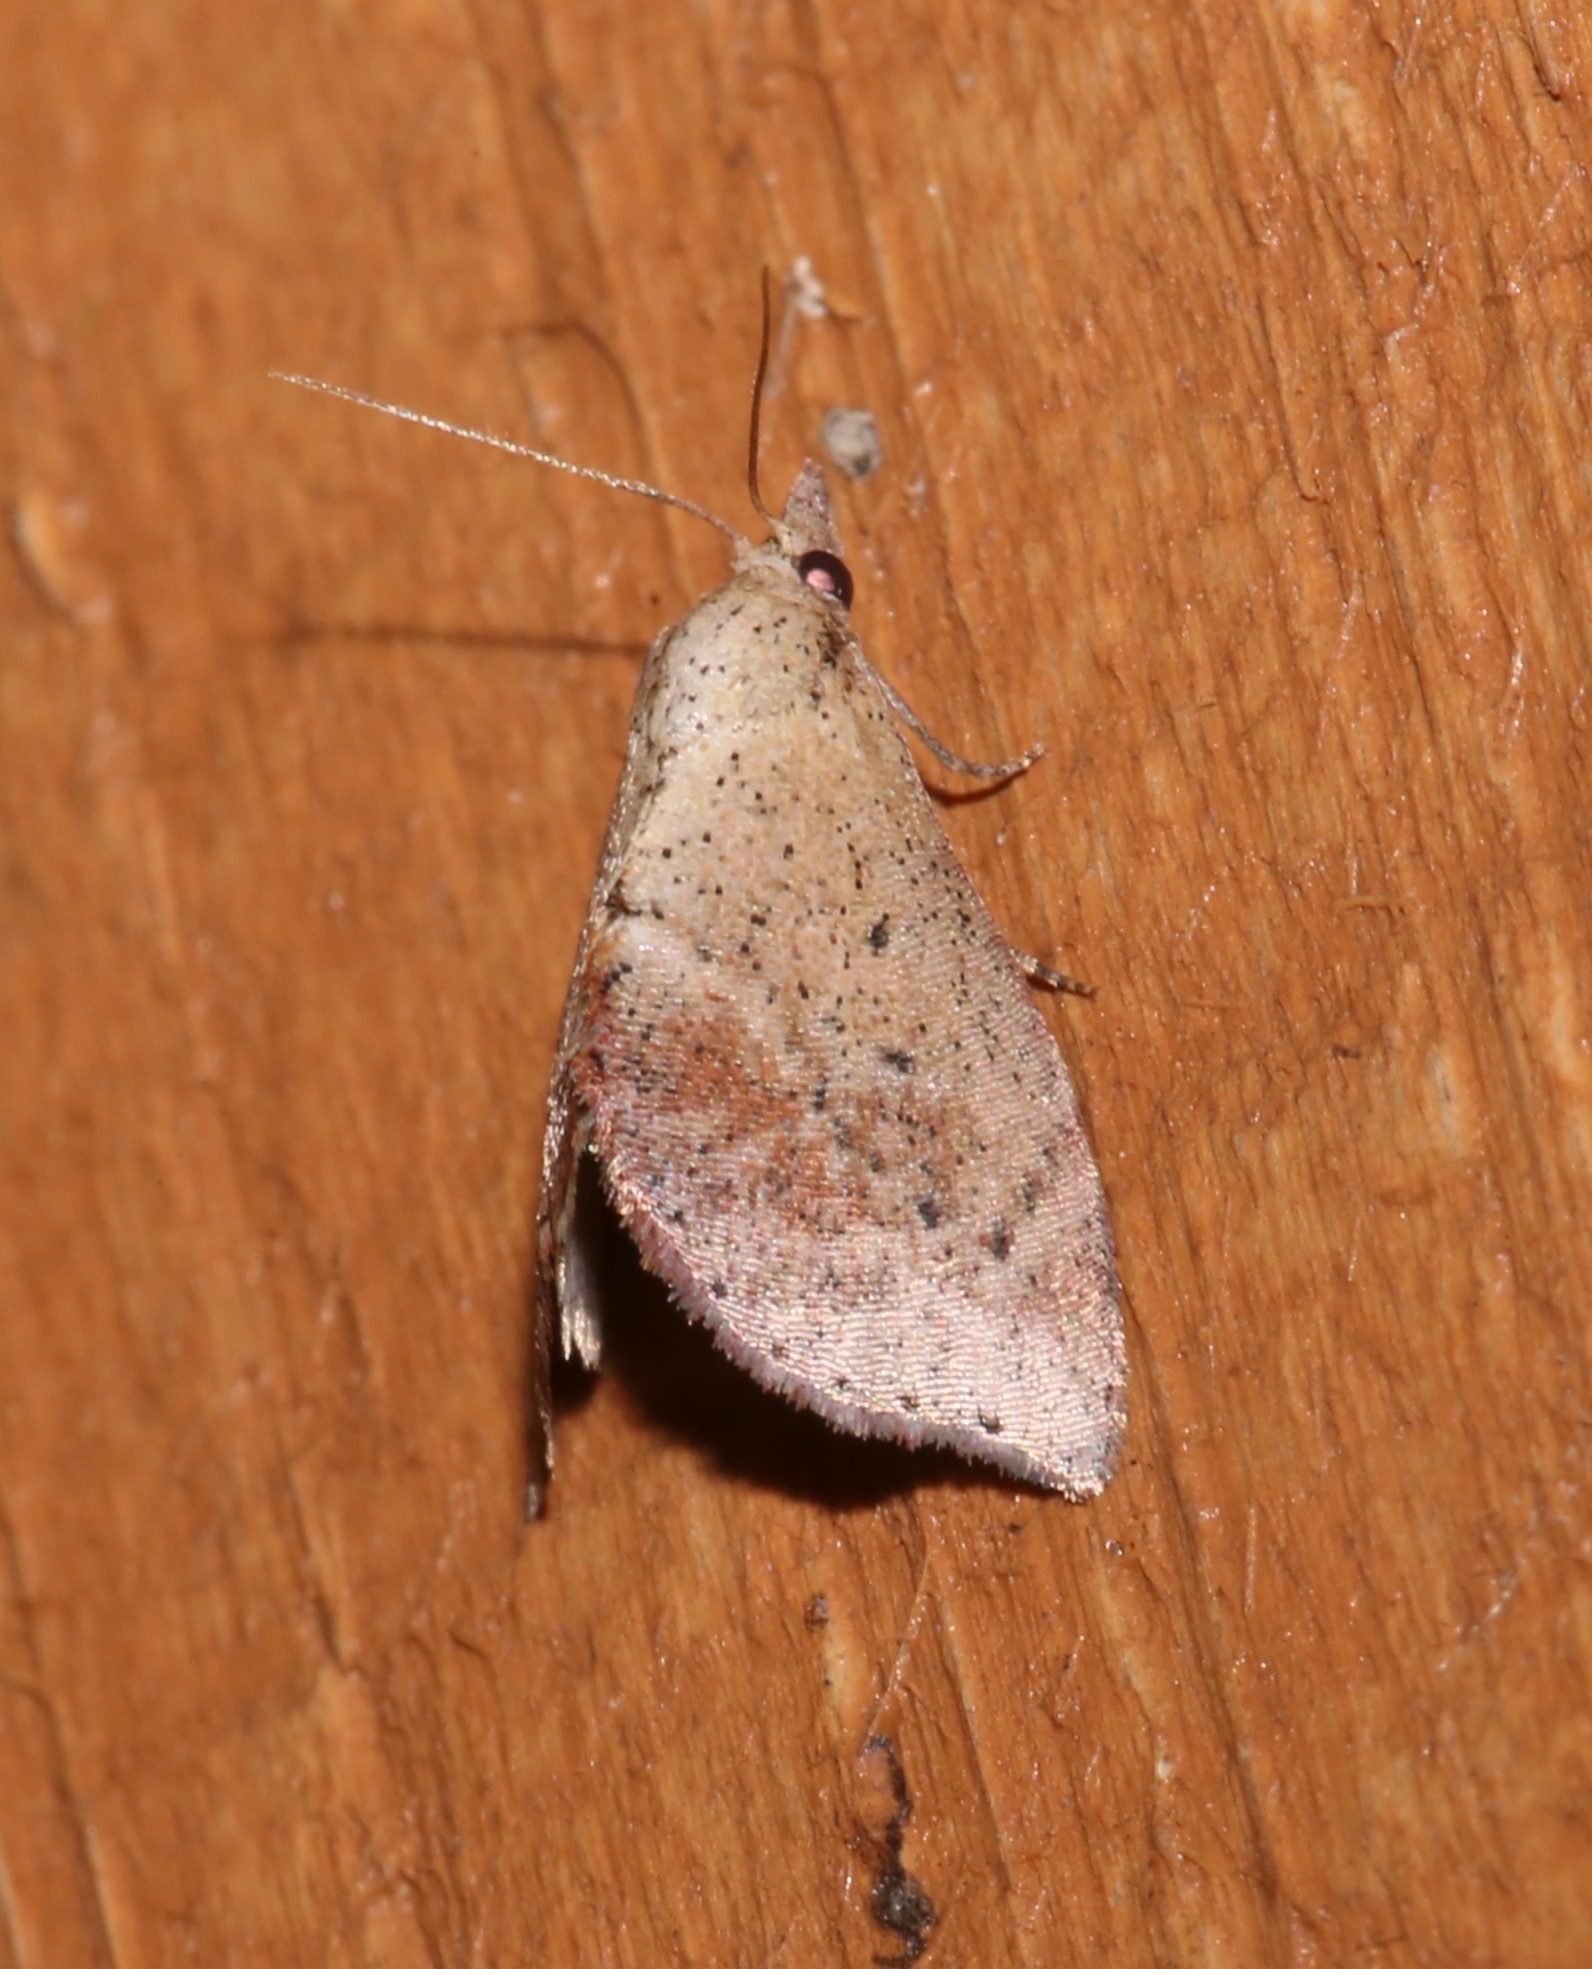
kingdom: Animalia
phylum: Arthropoda
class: Insecta
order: Lepidoptera
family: Noctuidae
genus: Proroblemma
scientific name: Proroblemma testa
